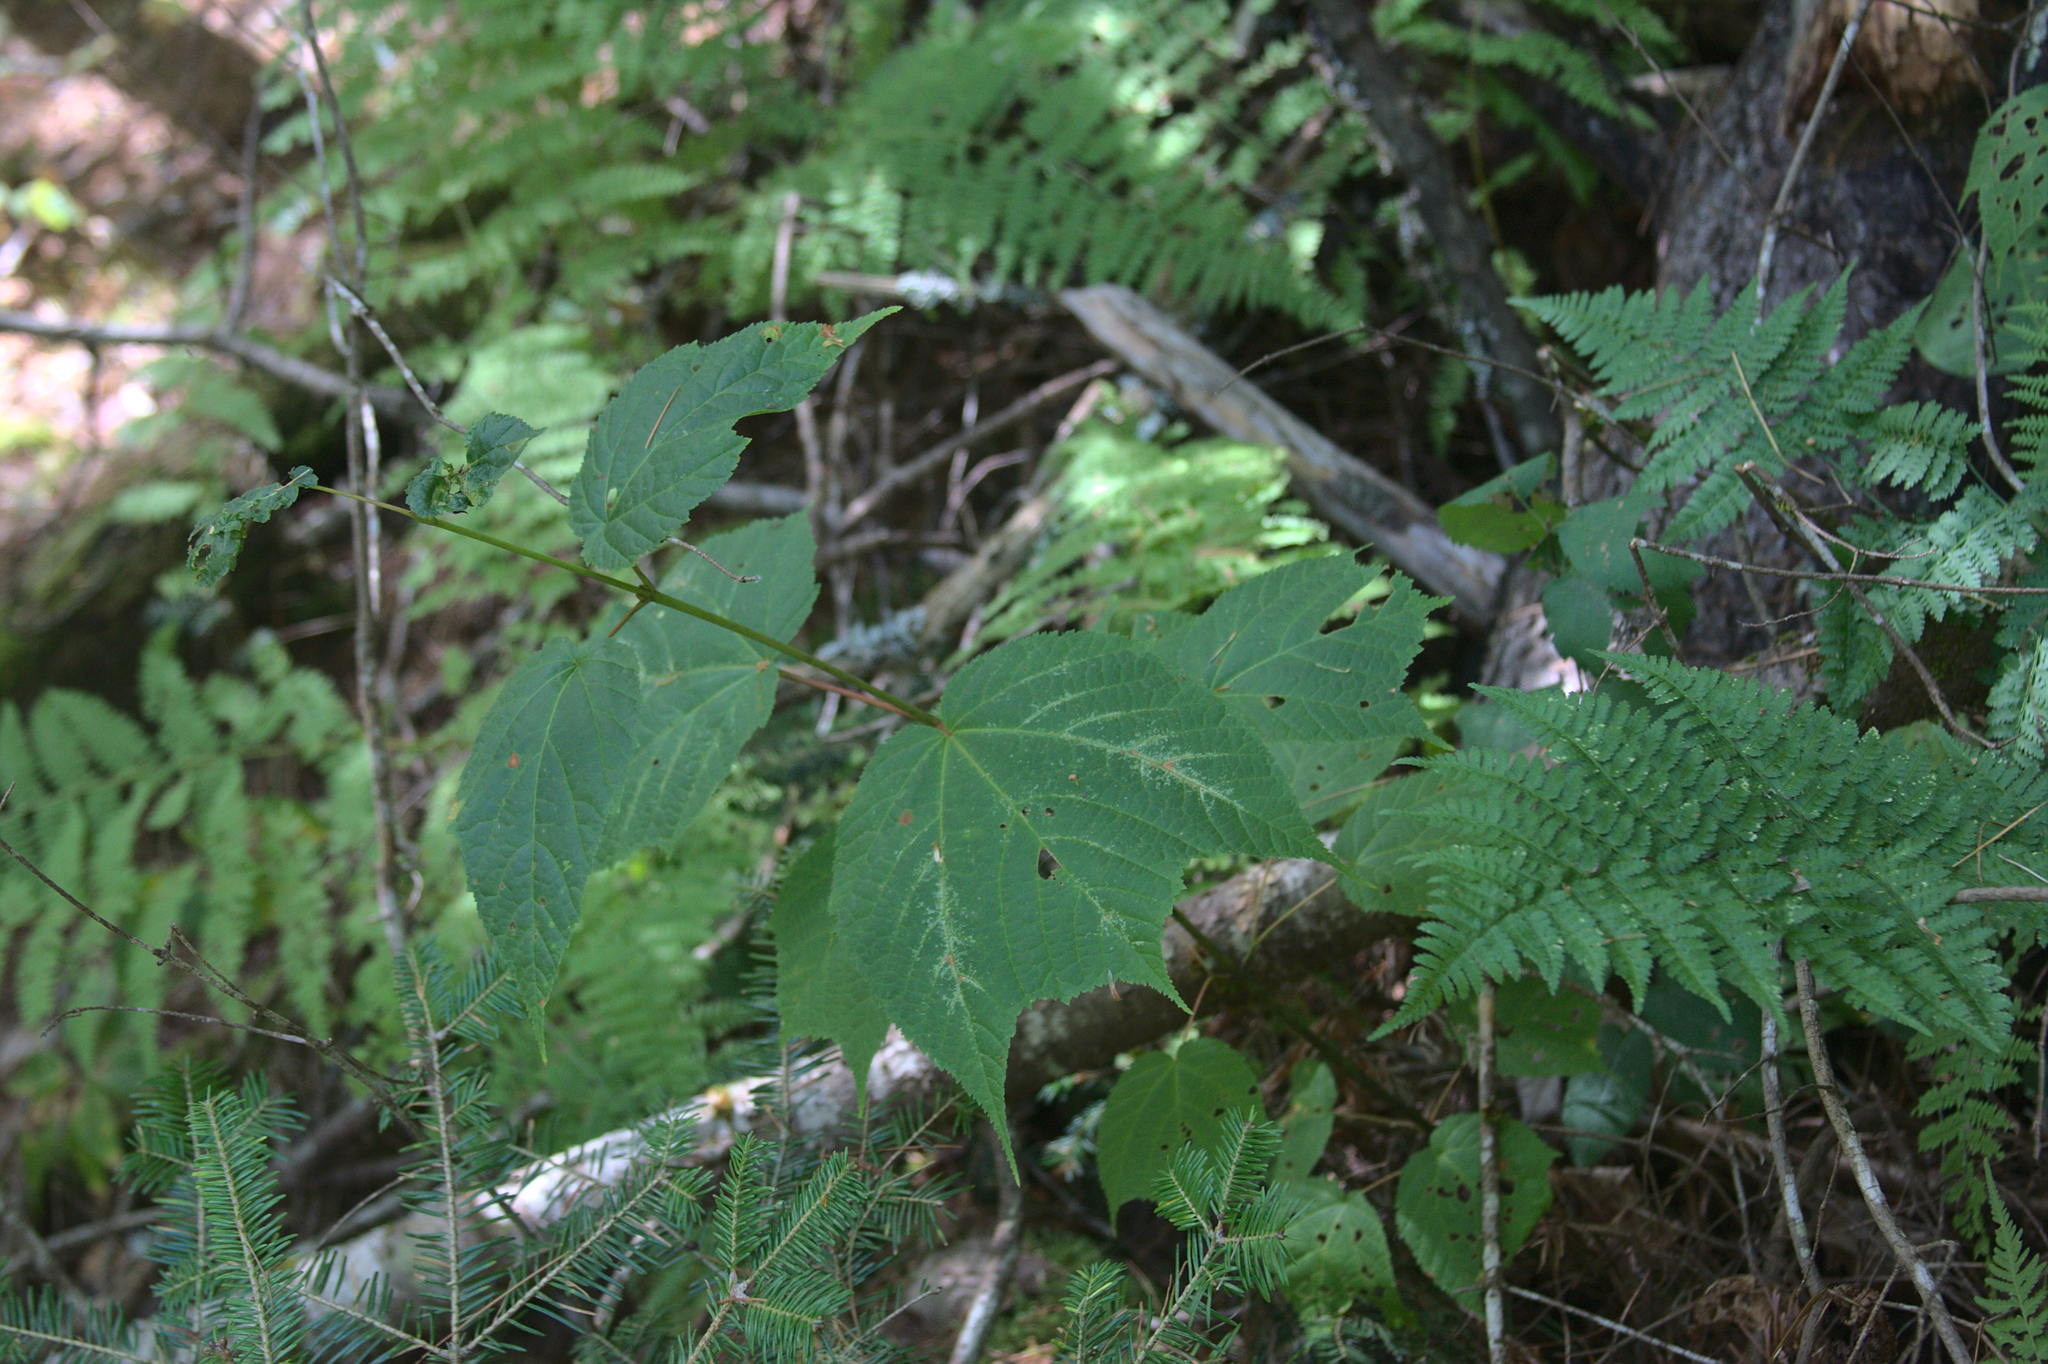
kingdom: Plantae
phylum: Tracheophyta
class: Magnoliopsida
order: Sapindales
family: Sapindaceae
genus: Acer
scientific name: Acer pensylvanicum
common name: Moosewood
